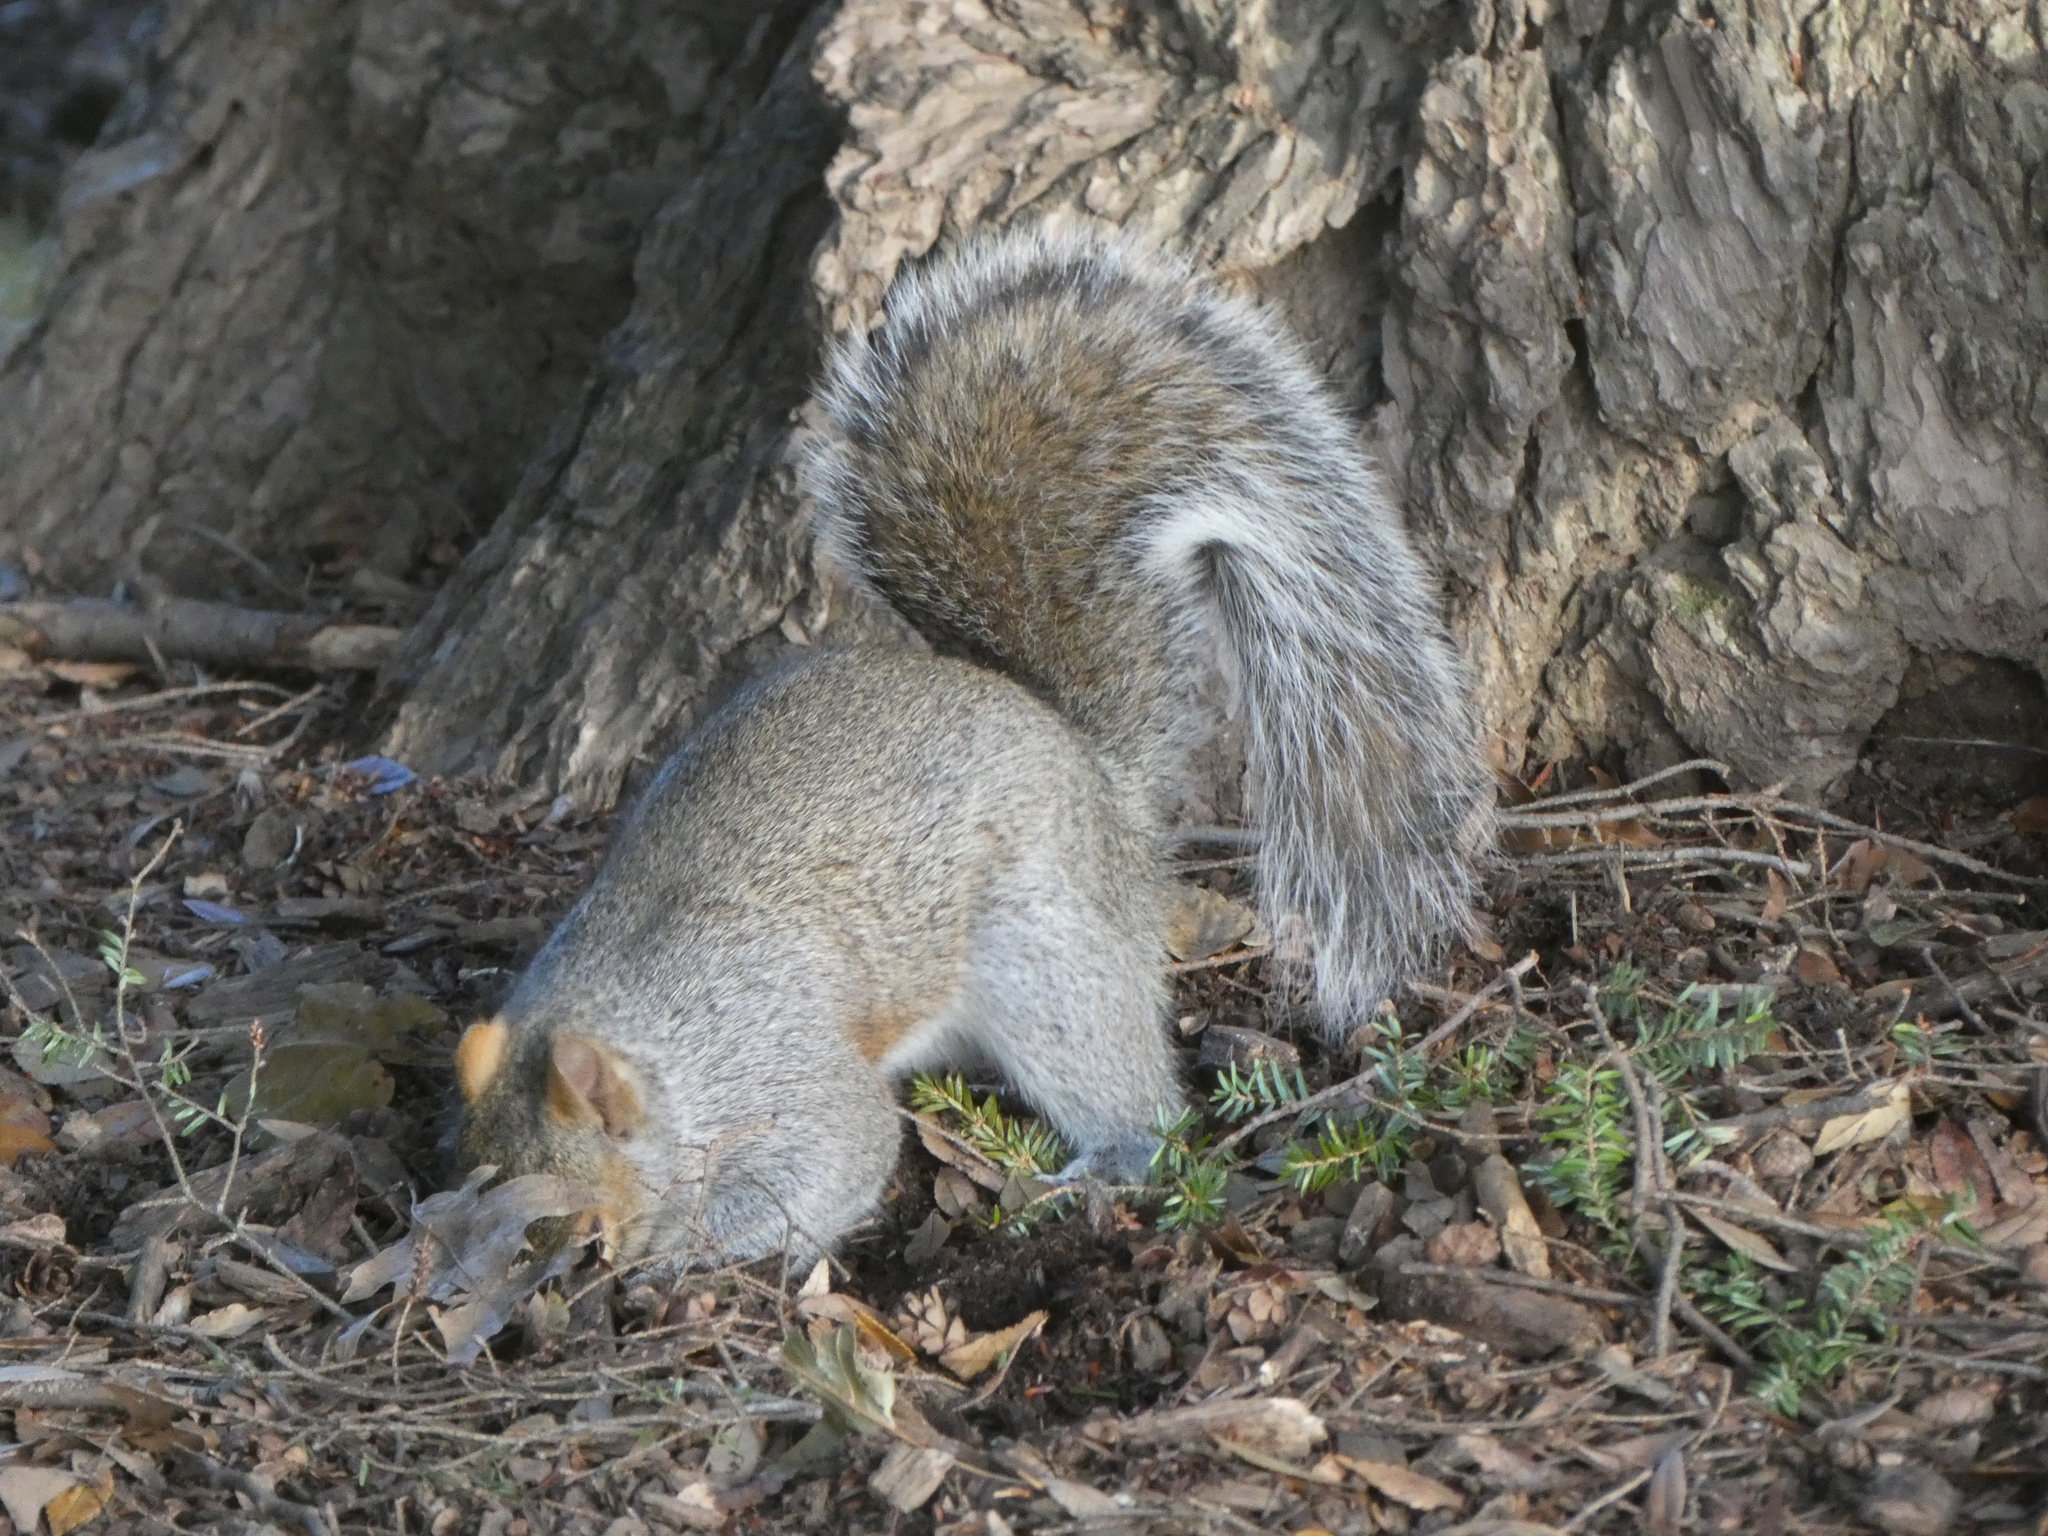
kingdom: Animalia
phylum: Chordata
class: Mammalia
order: Rodentia
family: Sciuridae
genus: Sciurus
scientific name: Sciurus carolinensis
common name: Eastern gray squirrel
